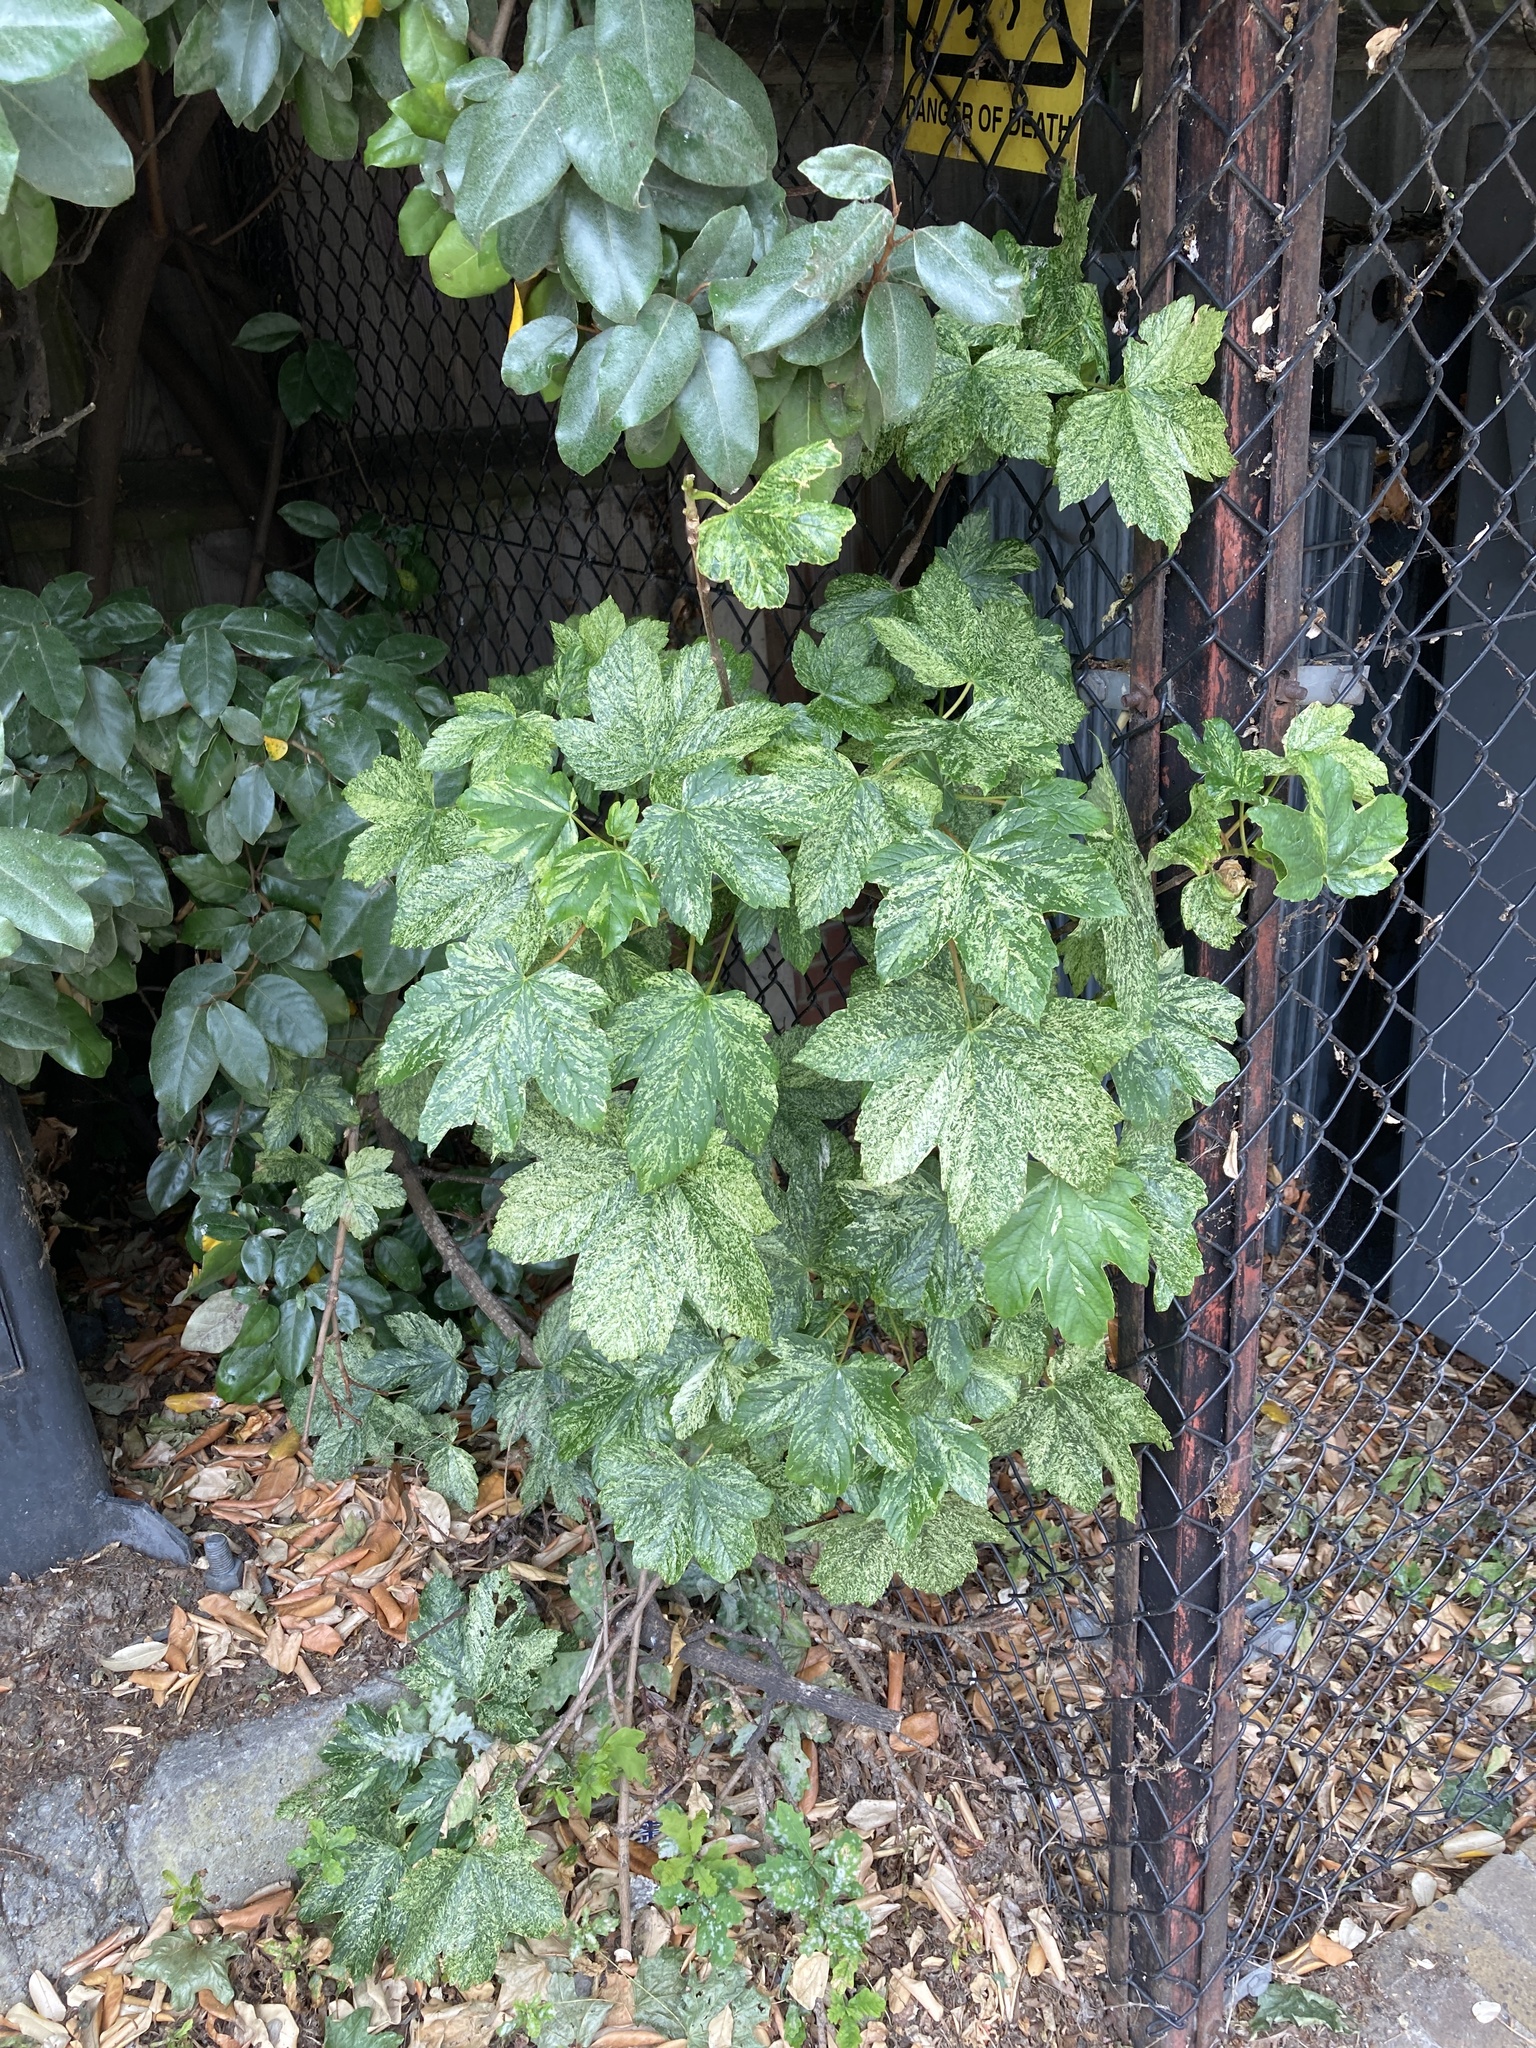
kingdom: Plantae
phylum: Tracheophyta
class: Magnoliopsida
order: Sapindales
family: Sapindaceae
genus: Acer
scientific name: Acer pseudoplatanus
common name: Sycamore
